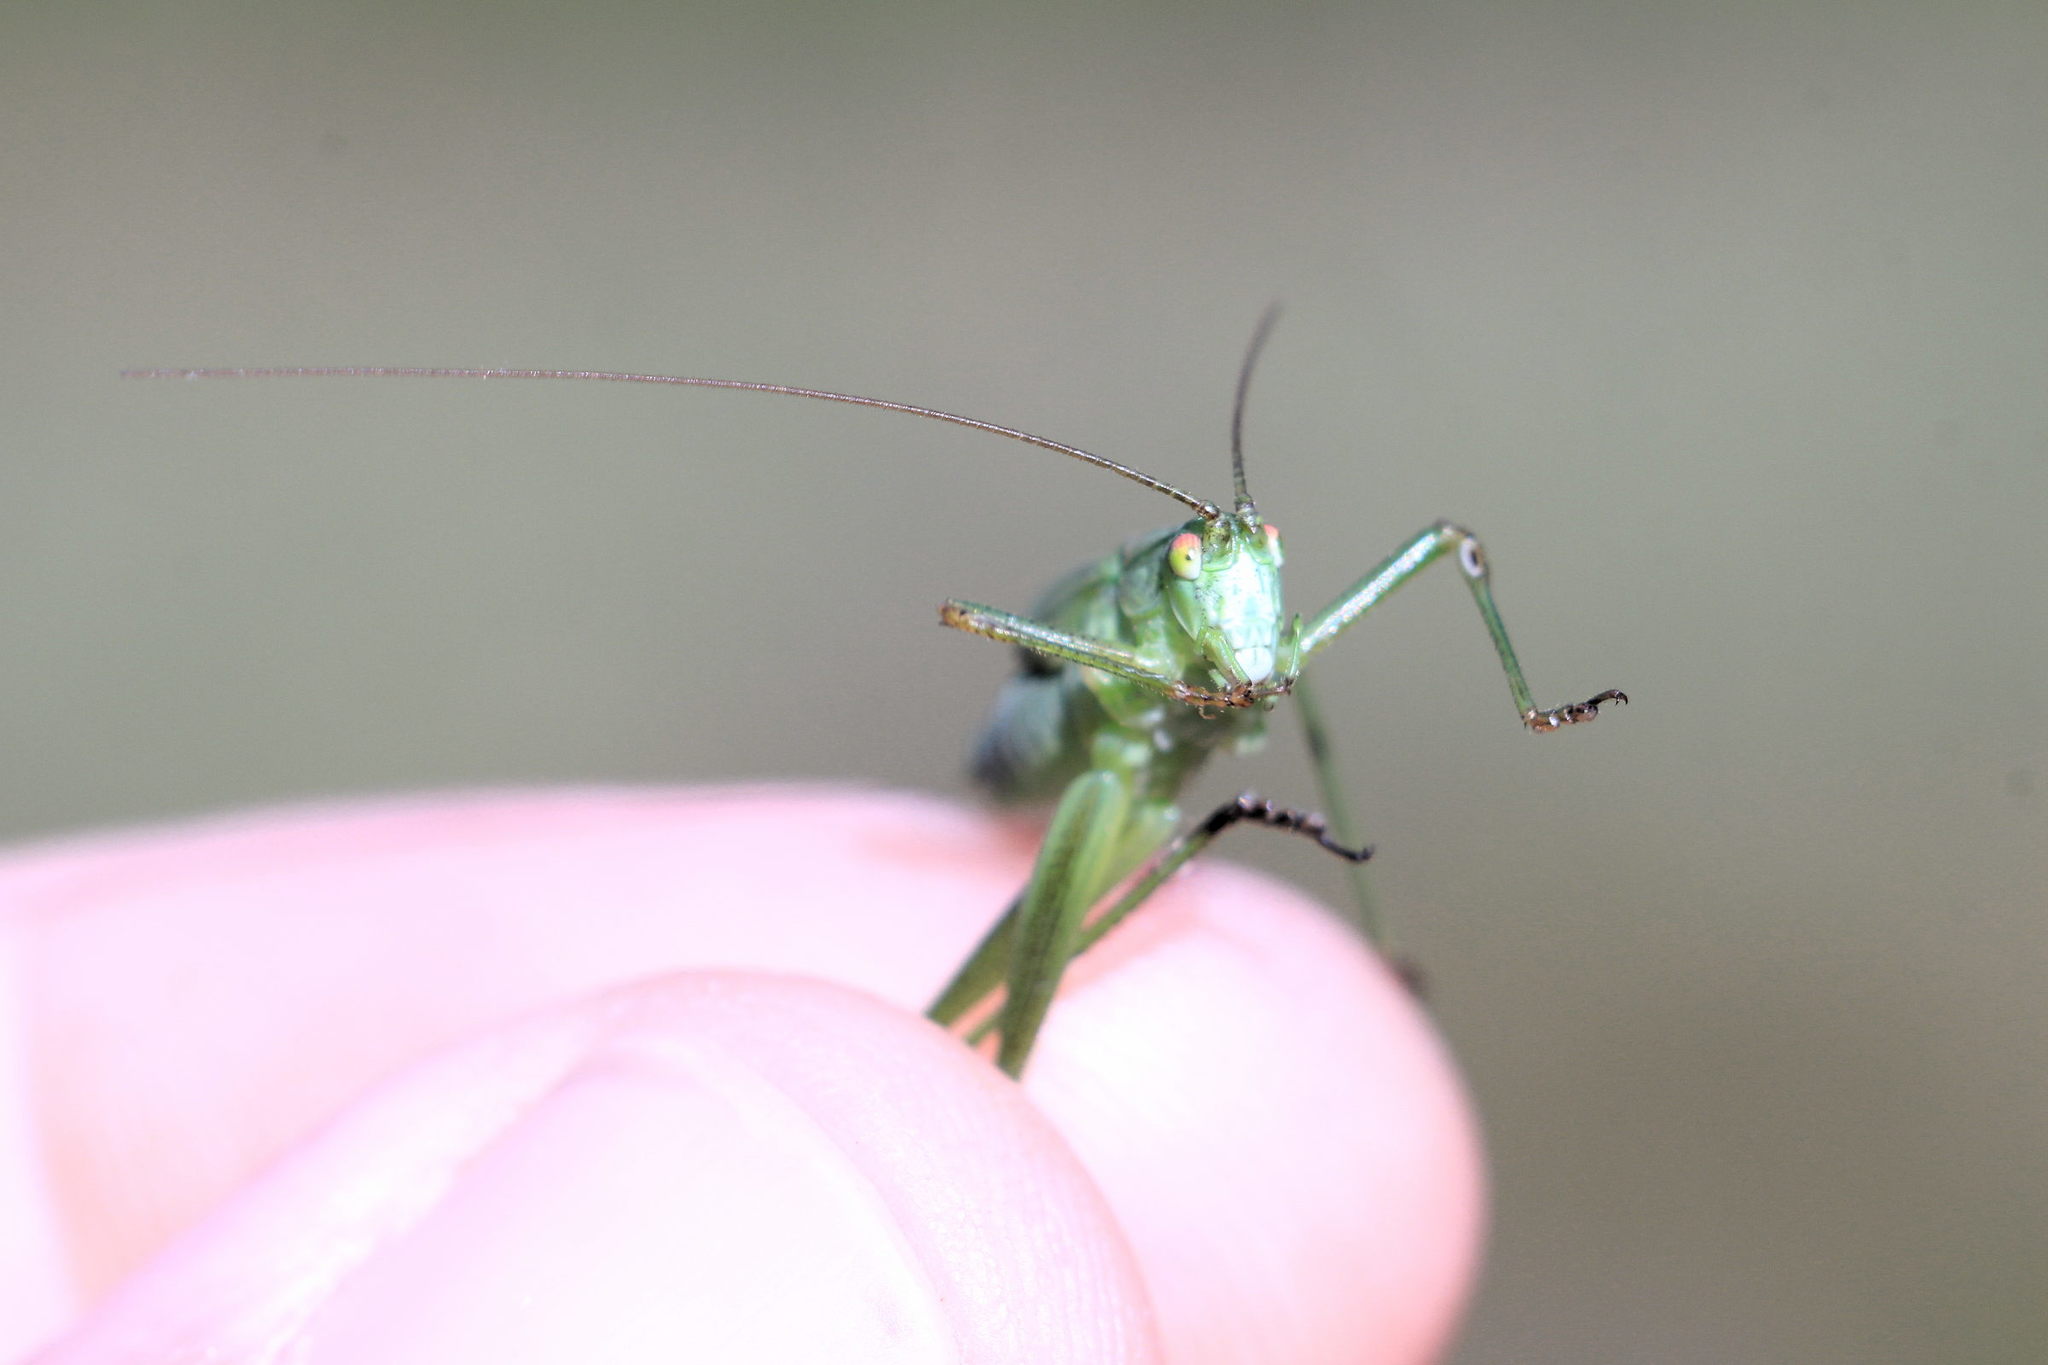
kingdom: Animalia
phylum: Arthropoda
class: Insecta
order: Orthoptera
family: Tettigoniidae
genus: Phaneroptera
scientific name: Phaneroptera falcata
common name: Sickle-bearing bush-cricket
